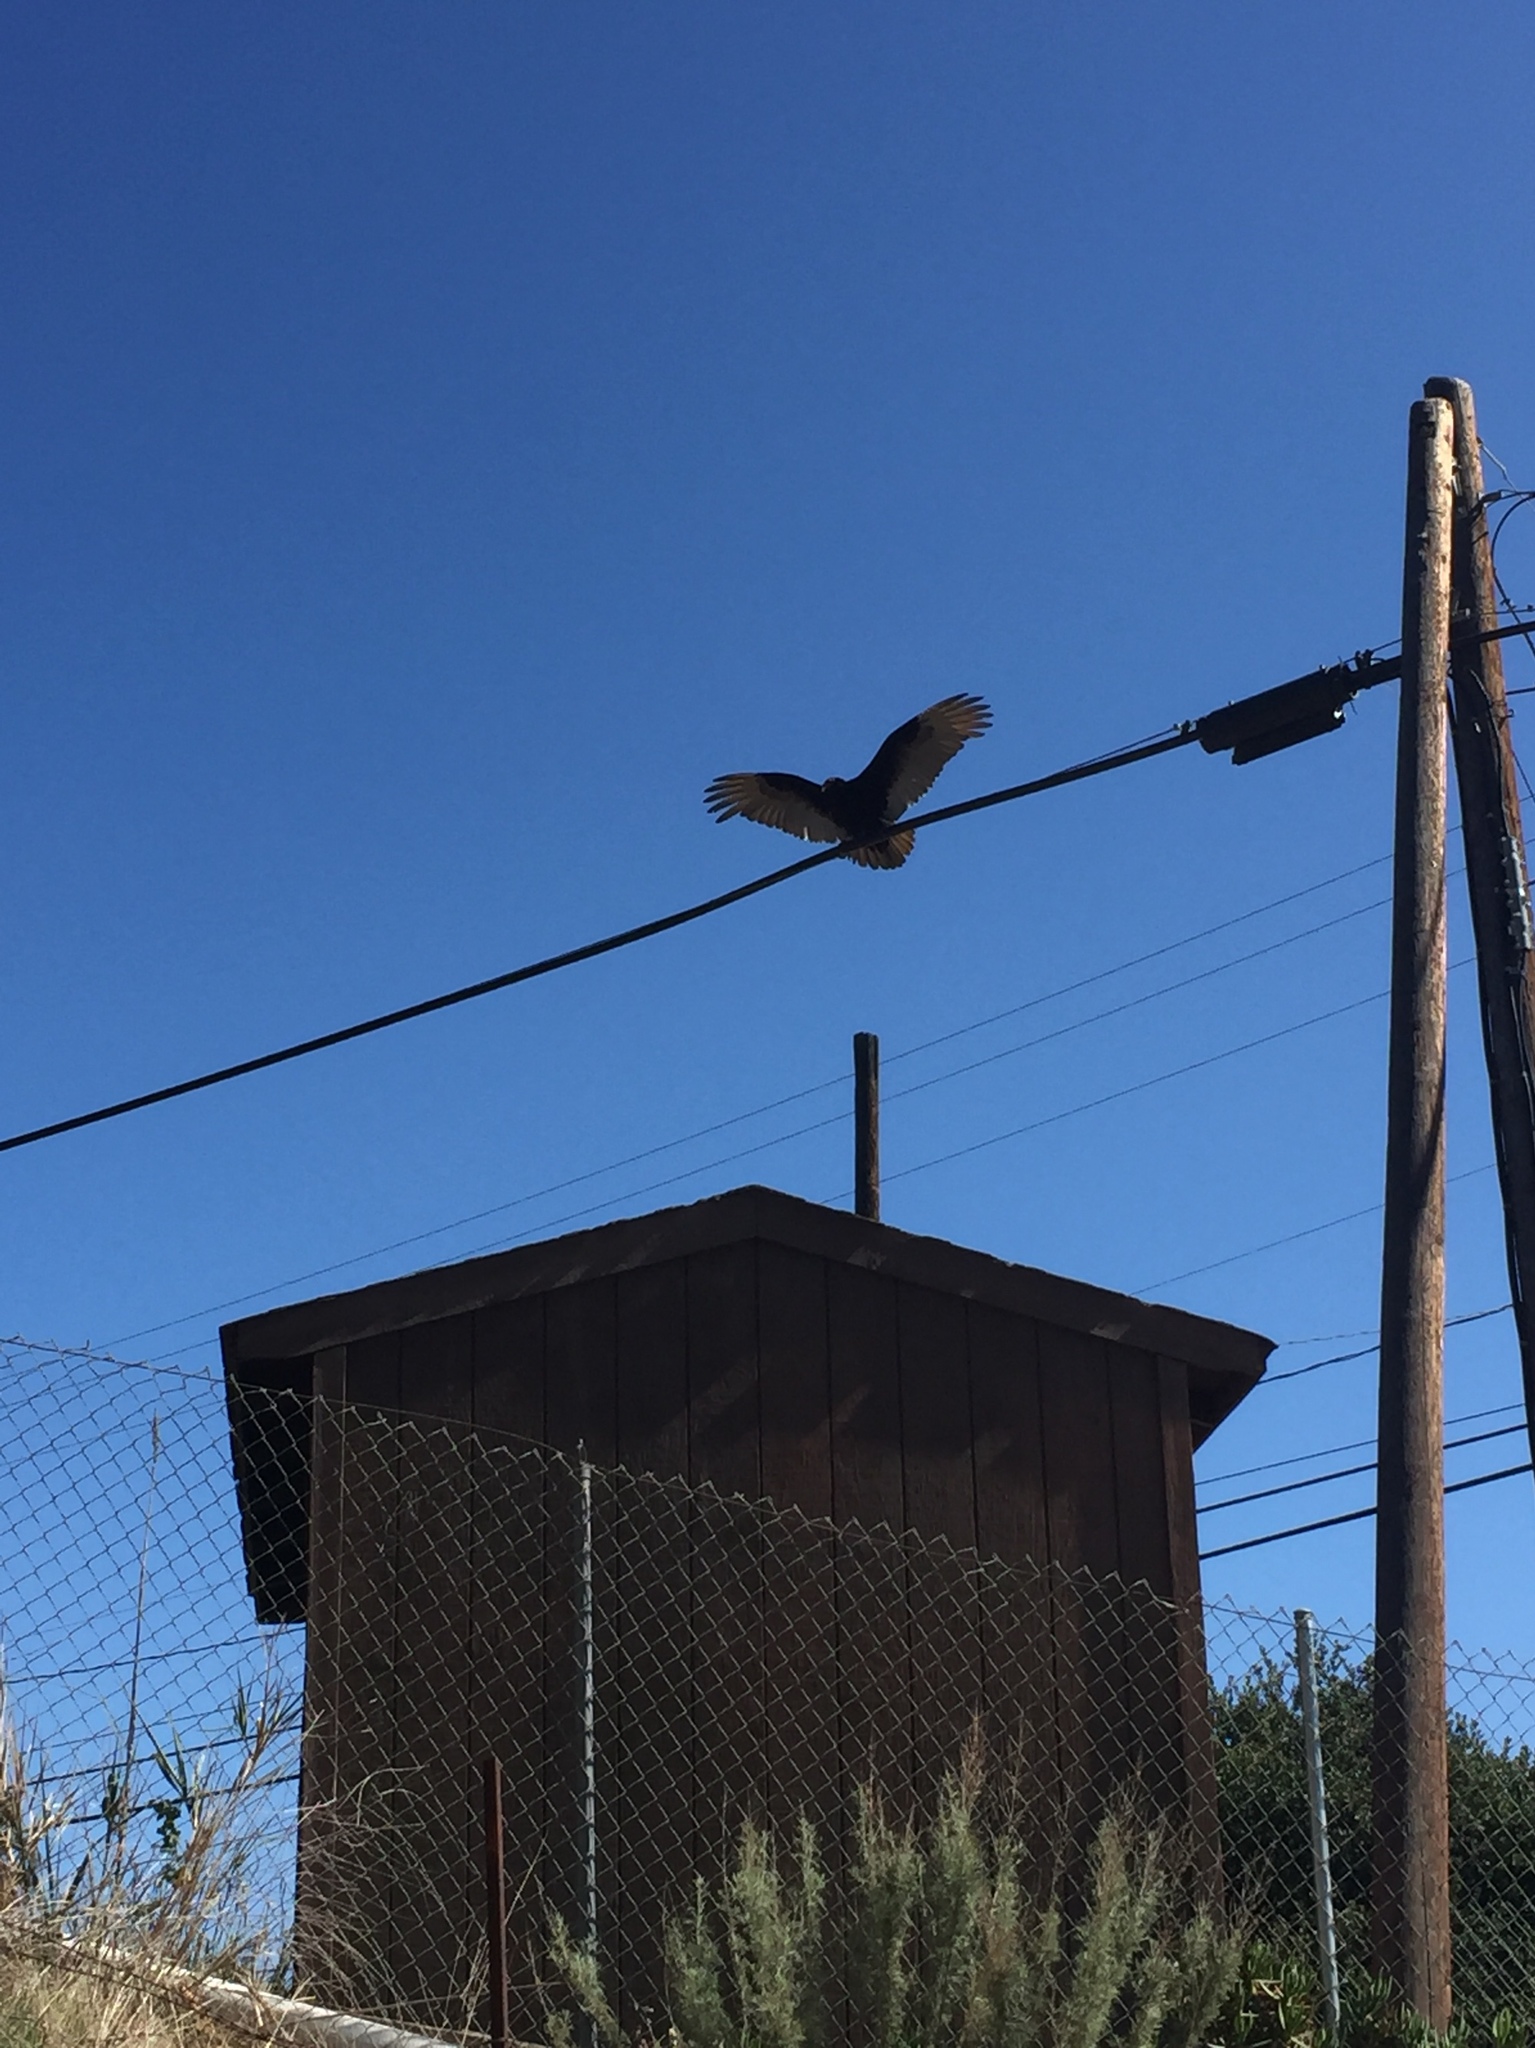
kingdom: Animalia
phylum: Chordata
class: Aves
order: Accipitriformes
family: Cathartidae
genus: Cathartes
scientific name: Cathartes aura
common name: Turkey vulture
